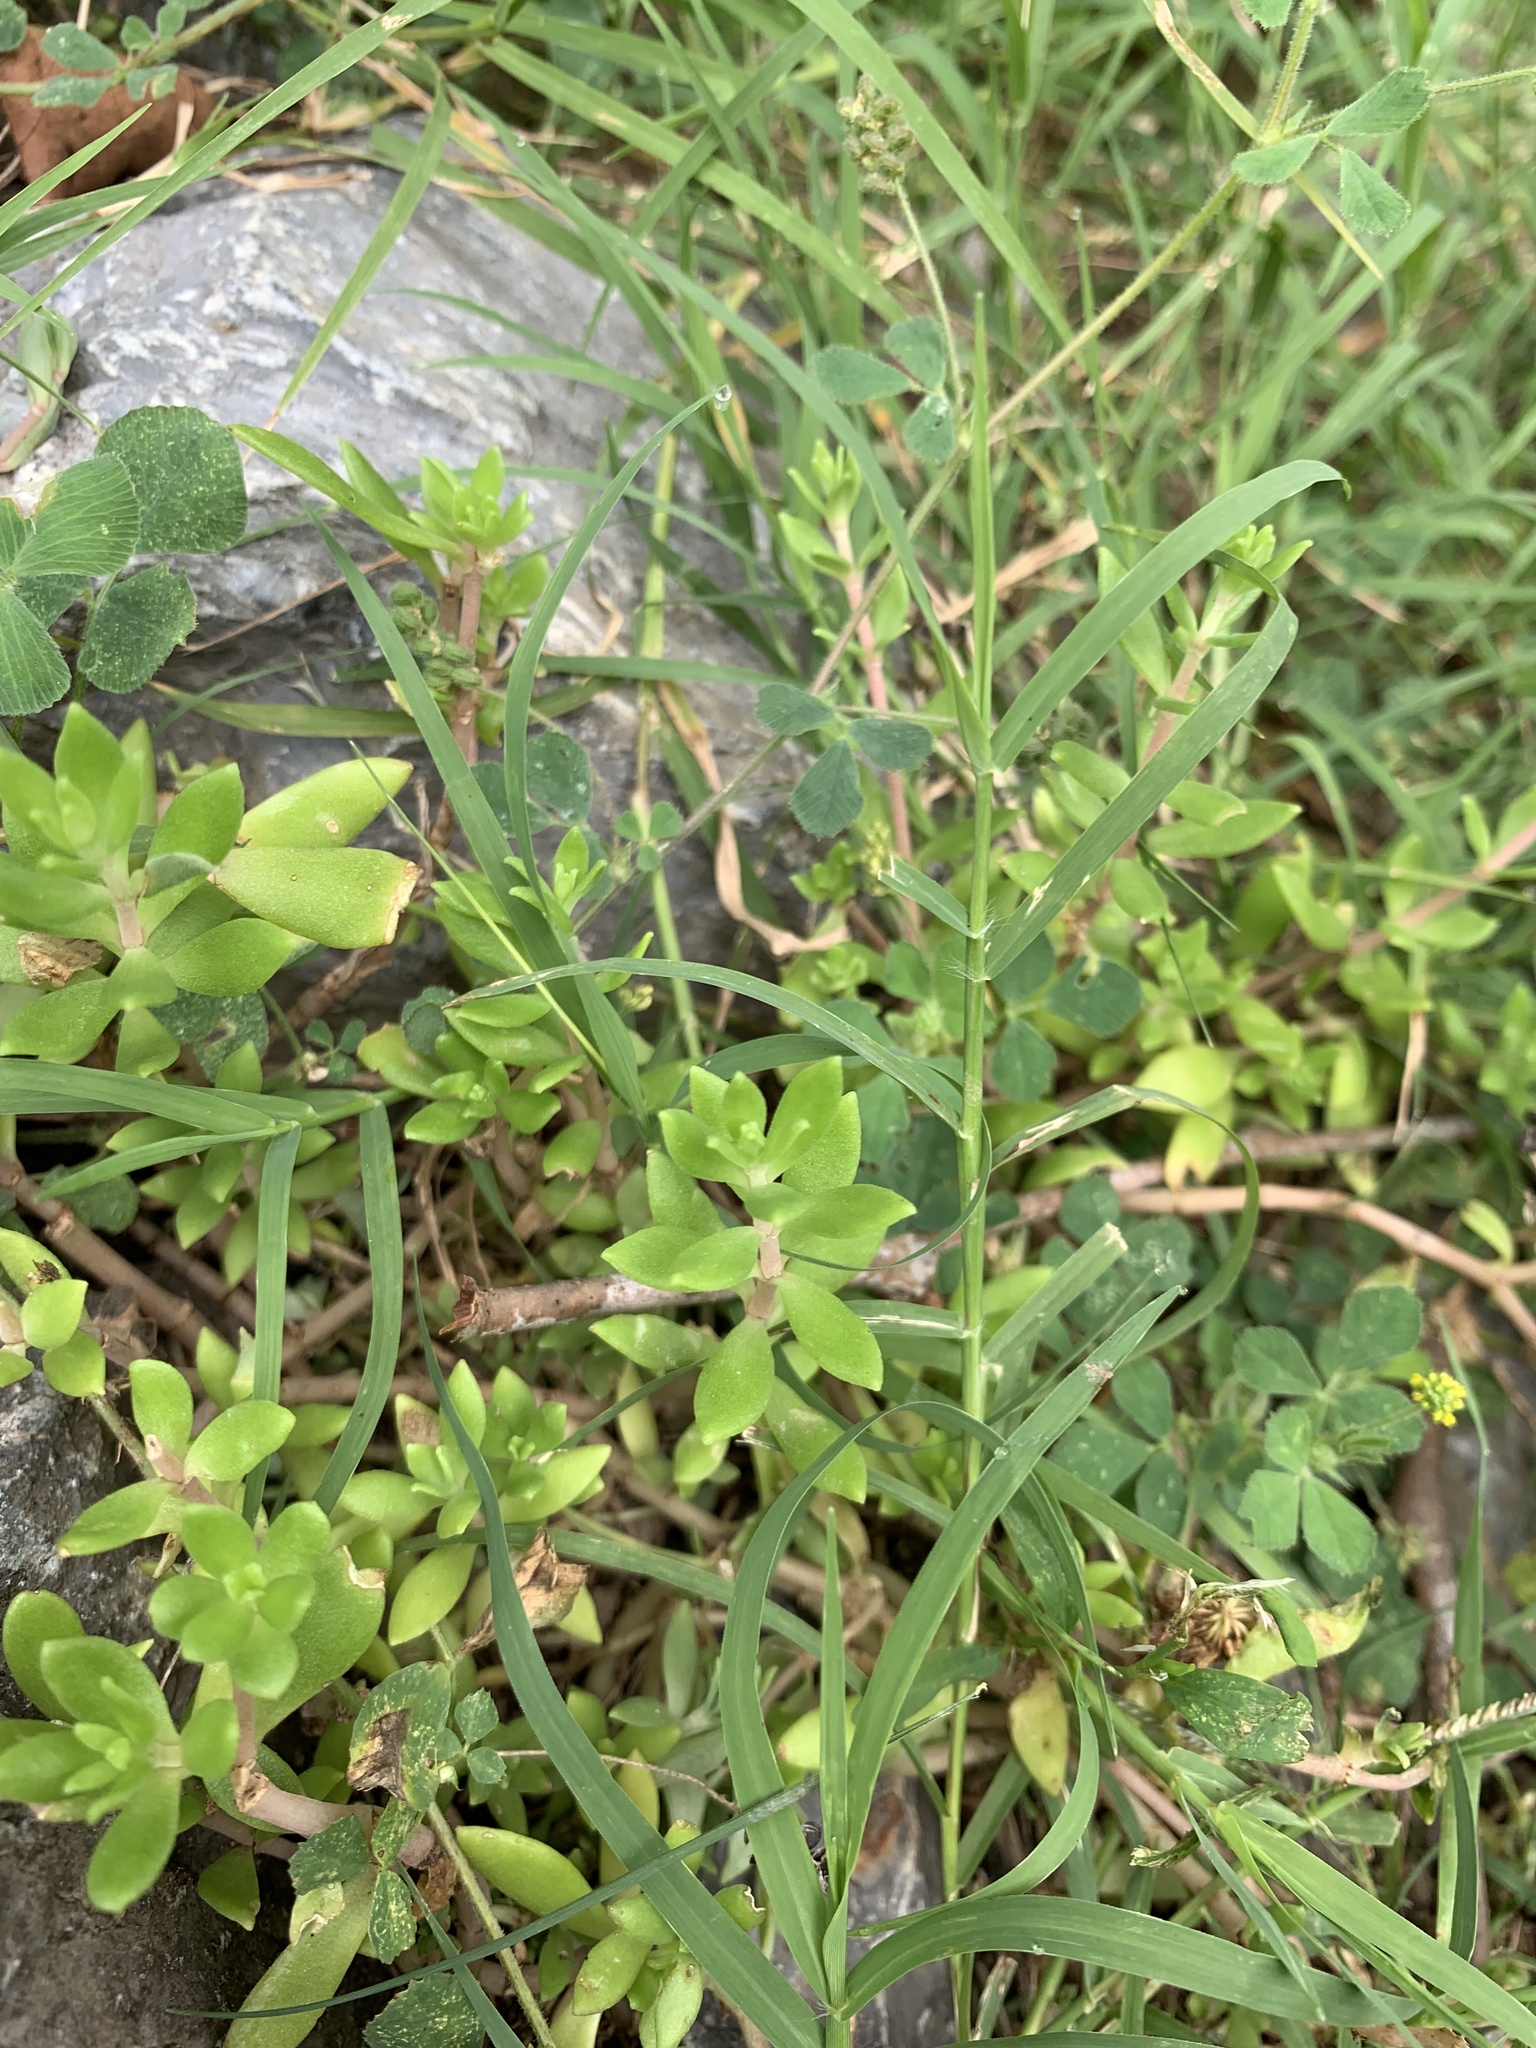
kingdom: Plantae
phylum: Tracheophyta
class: Magnoliopsida
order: Saxifragales
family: Crassulaceae
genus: Sedum
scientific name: Sedum sarmentosum
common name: Stringy stonecrop
